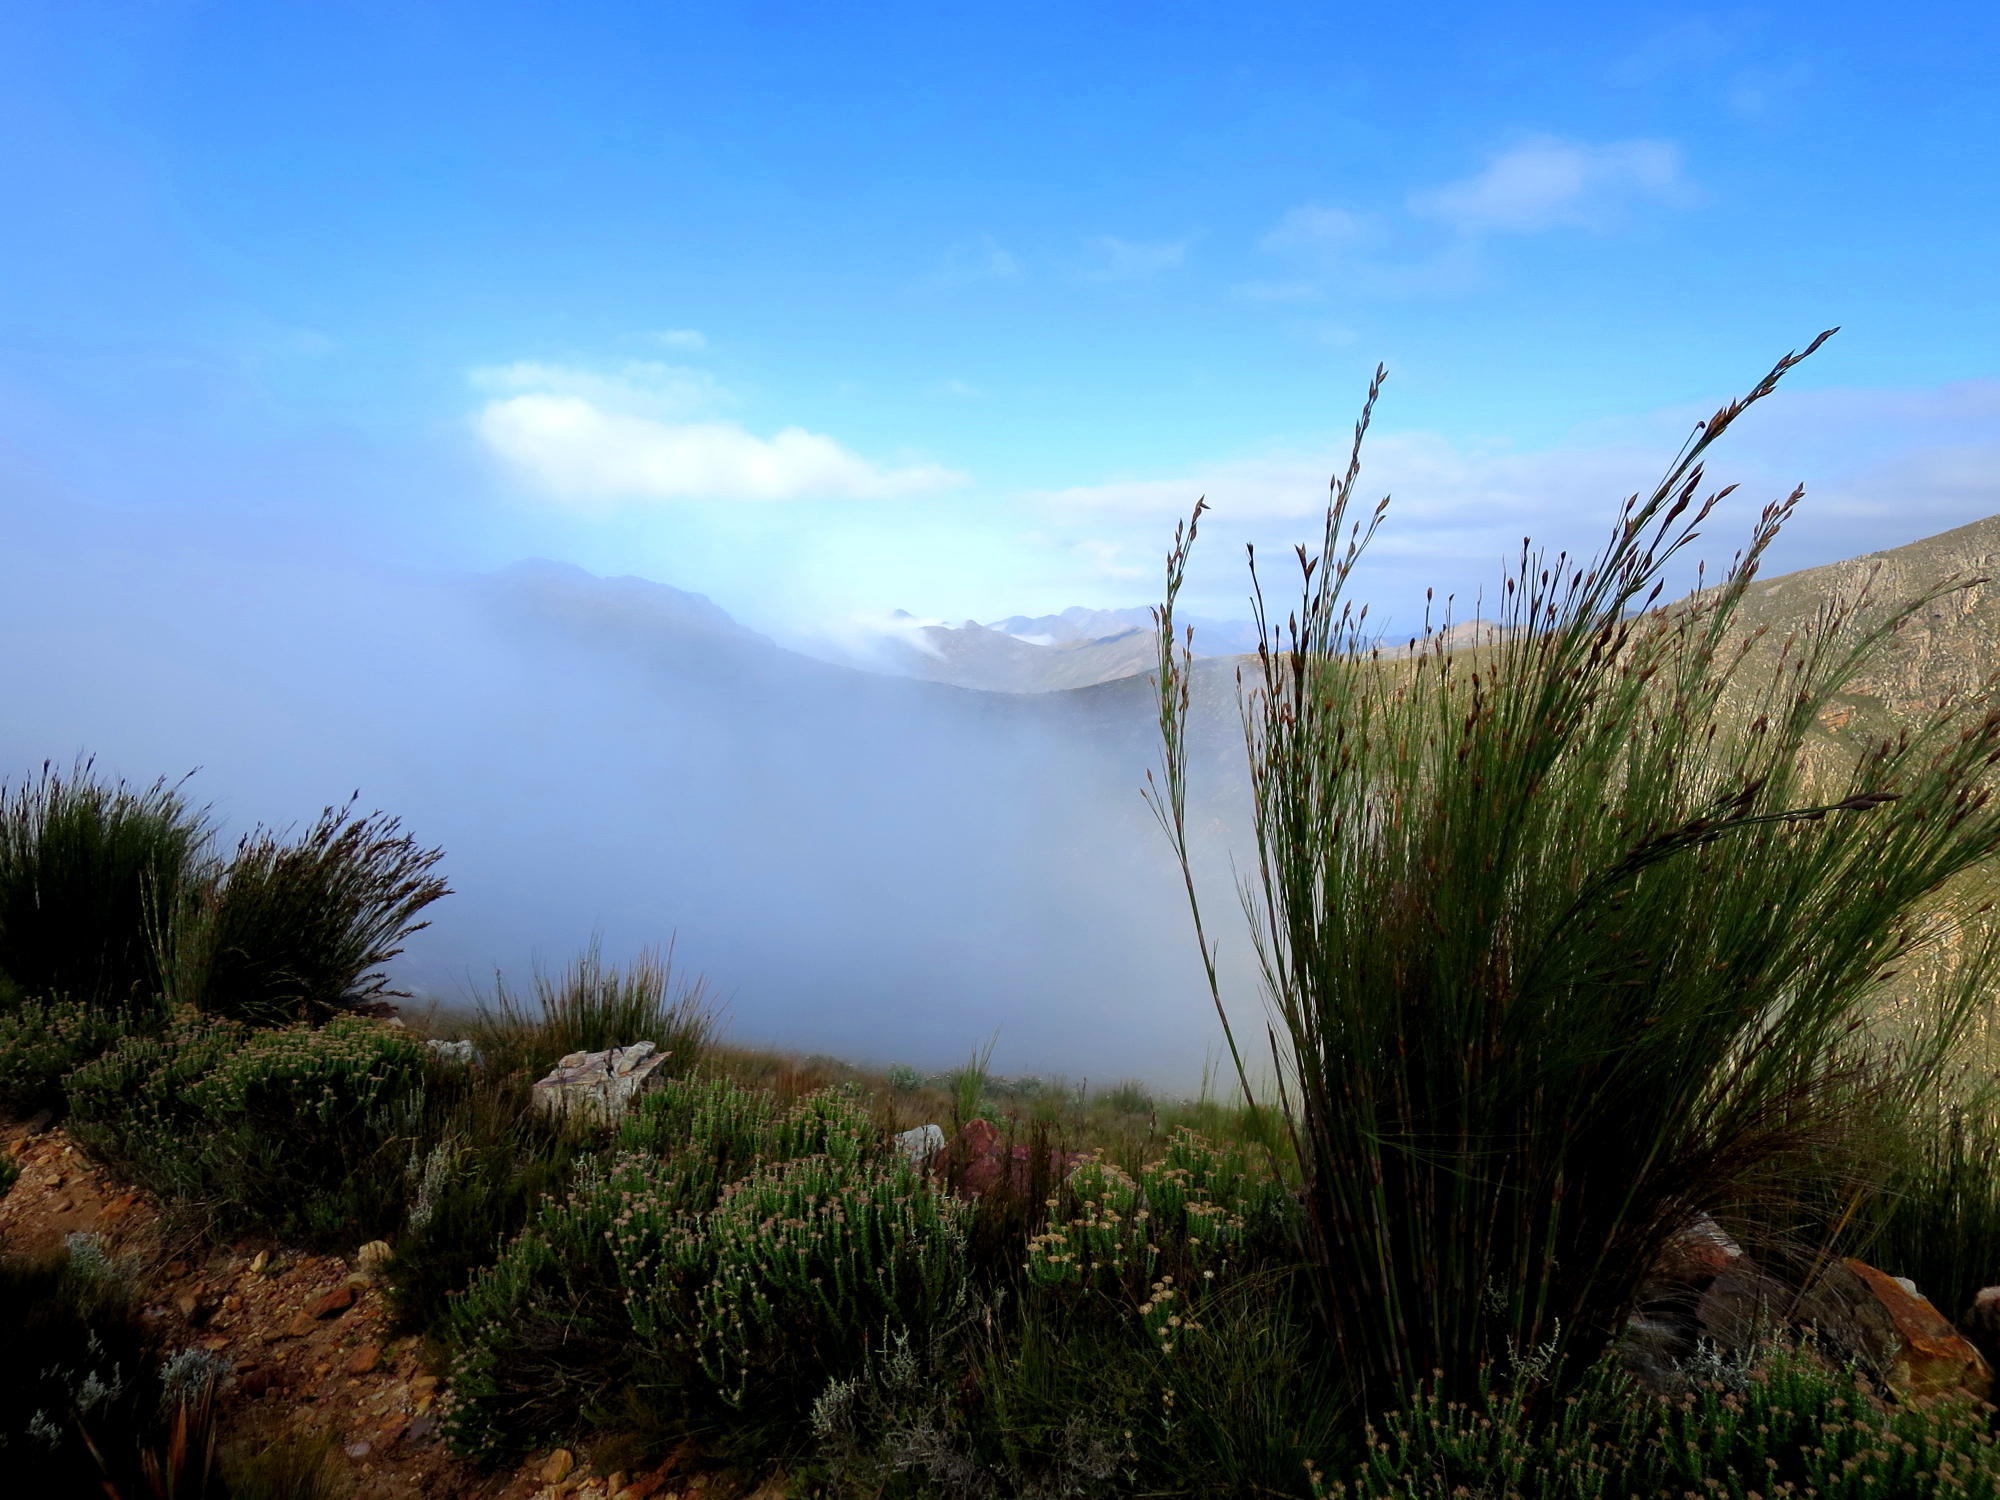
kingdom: Plantae
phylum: Tracheophyta
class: Liliopsida
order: Poales
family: Restionaceae
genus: Cannomois
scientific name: Cannomois robusta
